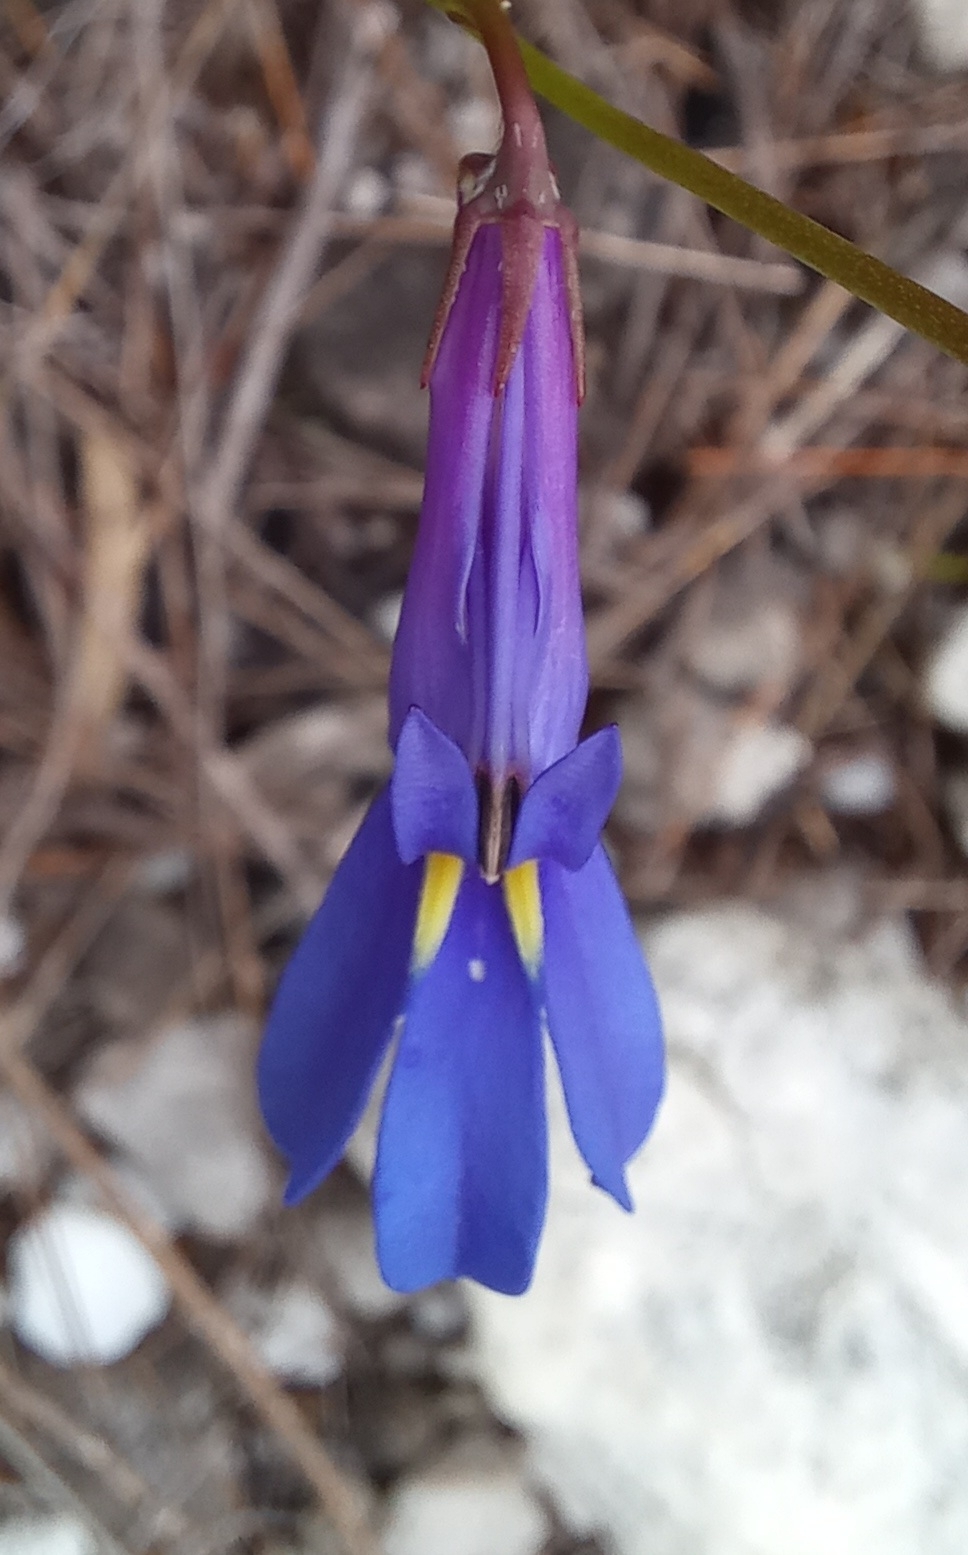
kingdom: Plantae
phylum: Tracheophyta
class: Magnoliopsida
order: Asterales
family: Campanulaceae
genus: Lobelia
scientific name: Lobelia coronopifolia
